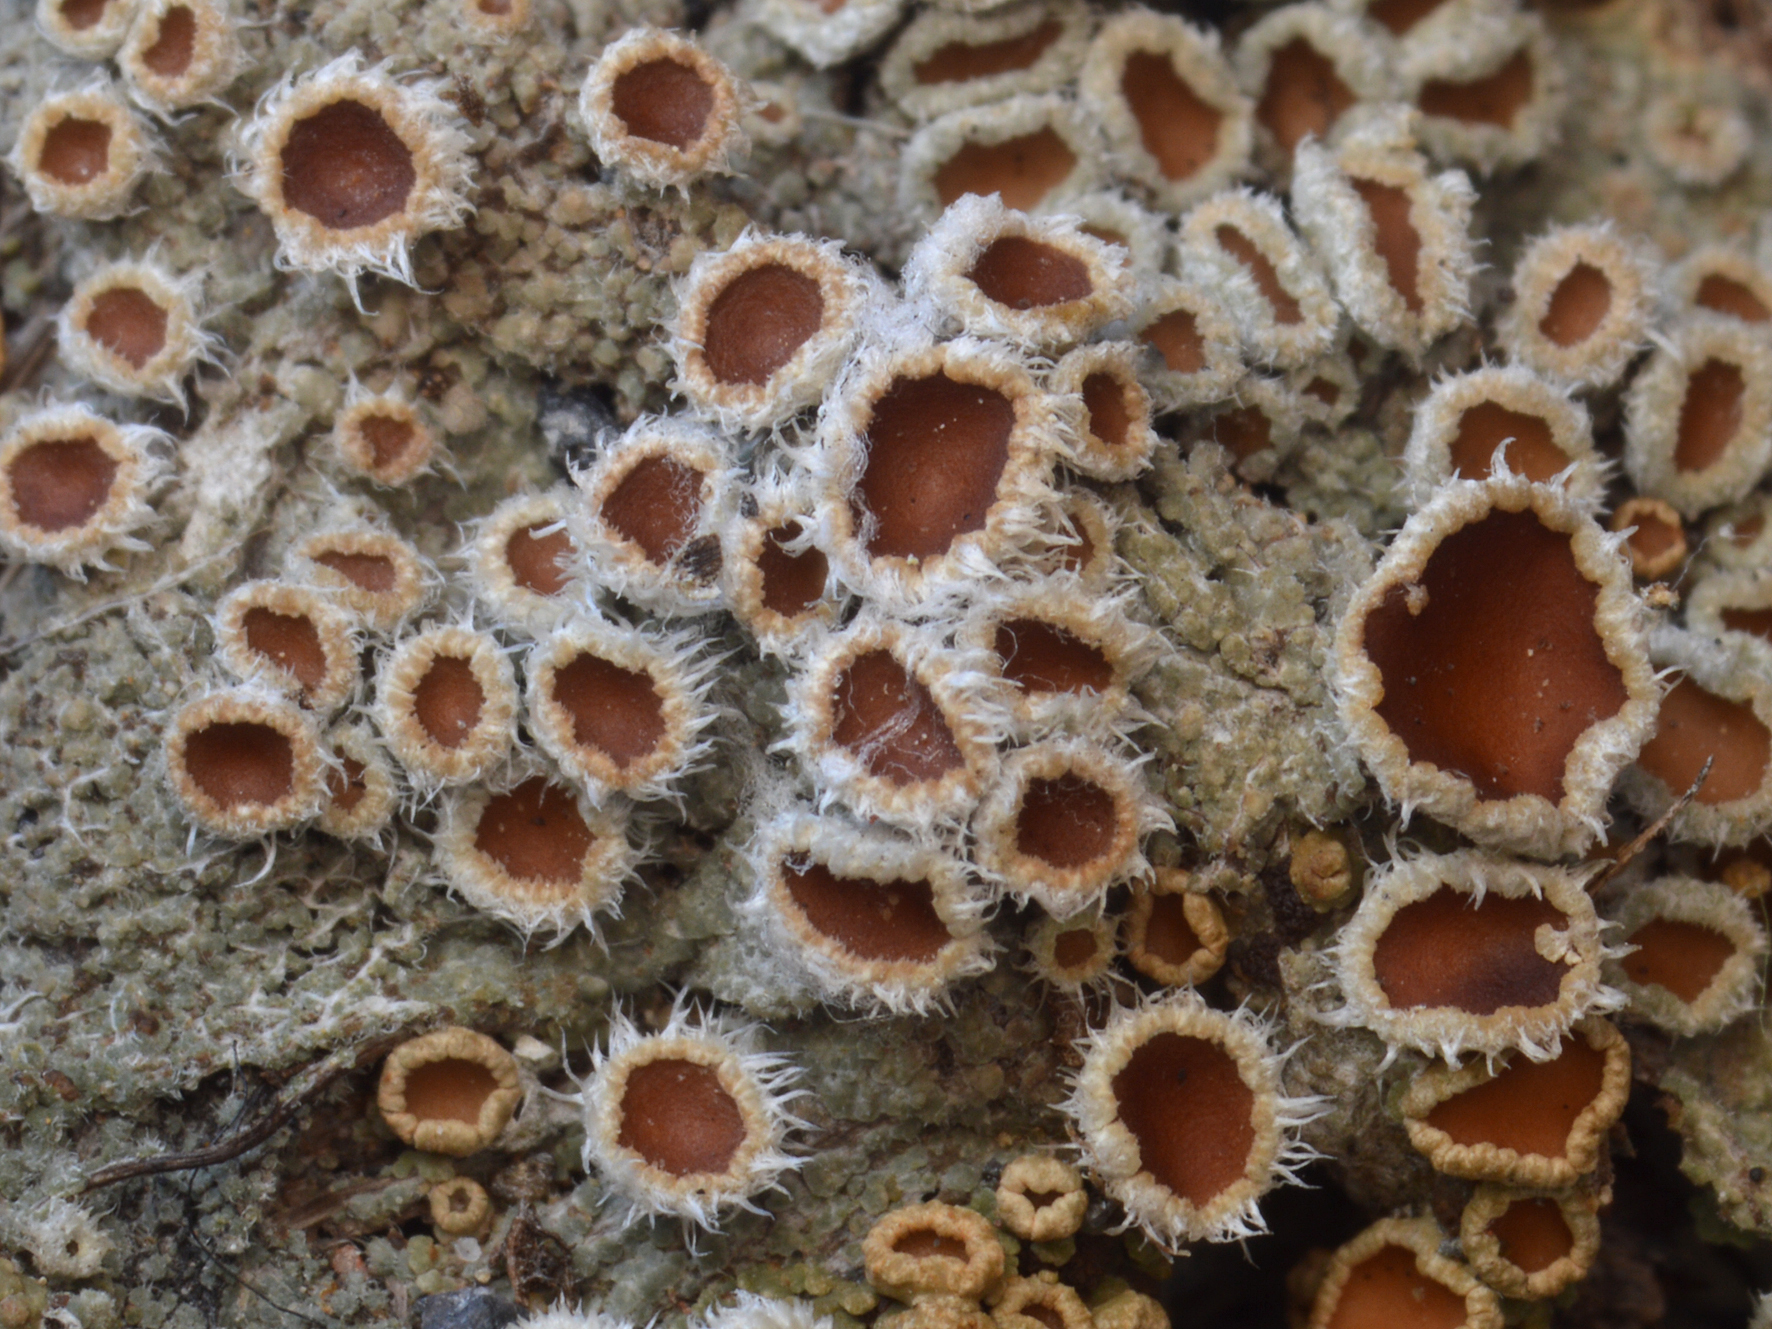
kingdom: Fungi
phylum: Ascomycota
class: Lecanoromycetes
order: Peltigerales
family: Pannariaceae
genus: Psoroma
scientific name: Psoroma paleaceum
